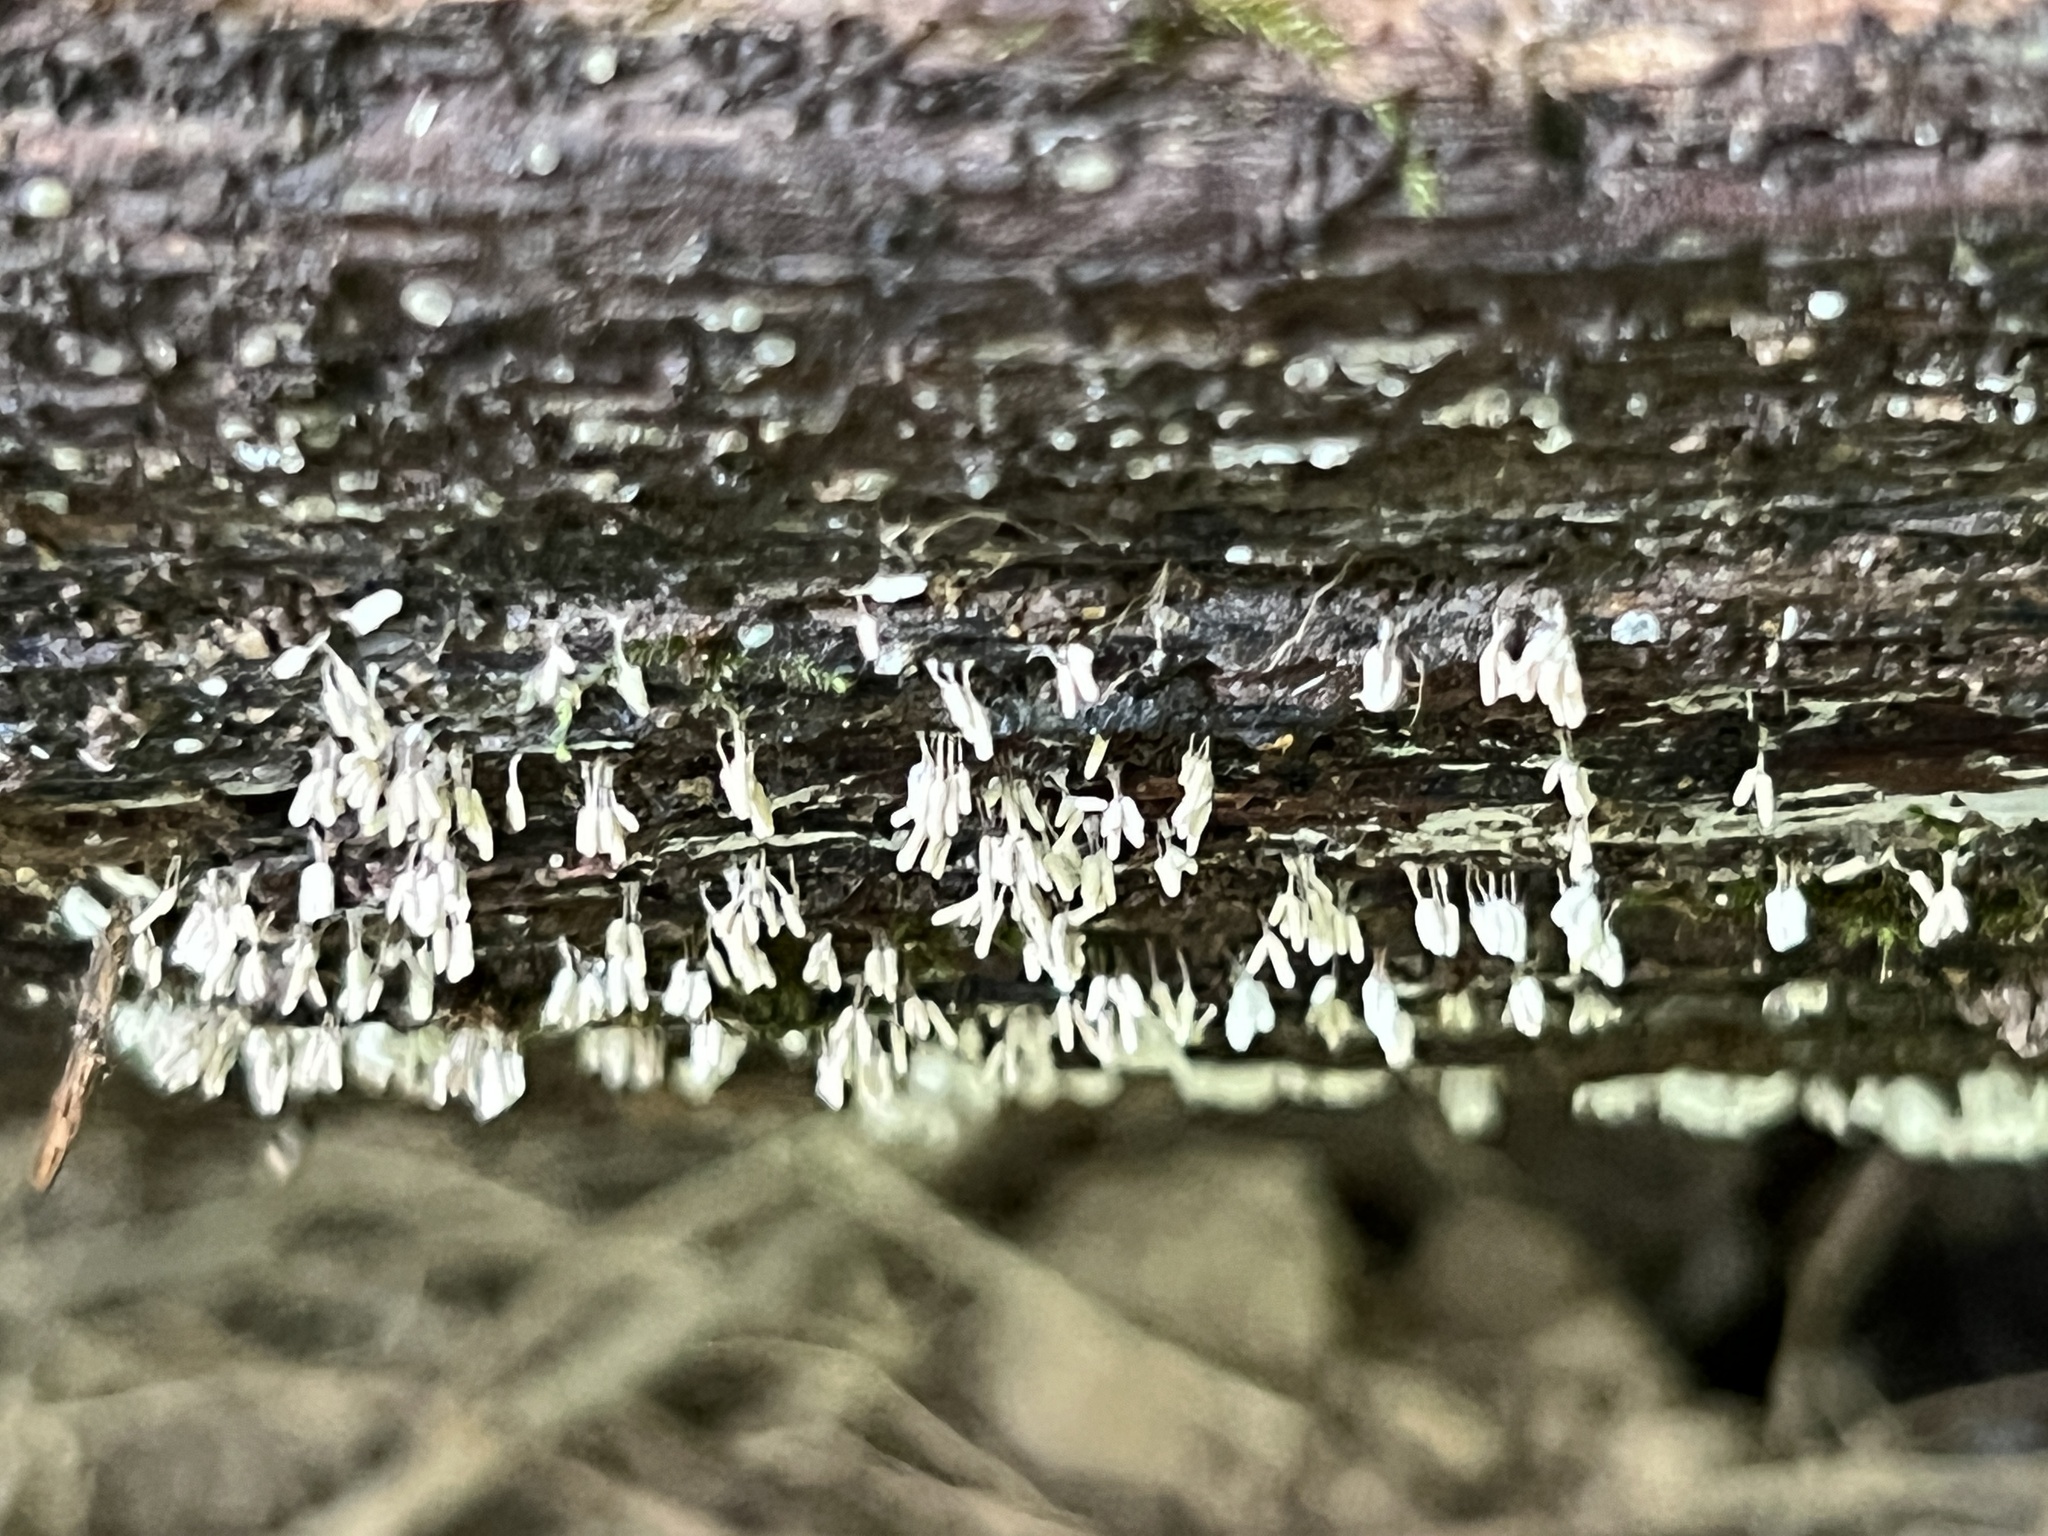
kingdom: Protozoa
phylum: Mycetozoa
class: Myxomycetes
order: Trichiales
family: Arcyriaceae
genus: Arcyria
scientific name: Arcyria cinerea
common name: White carnival candy slime mold
